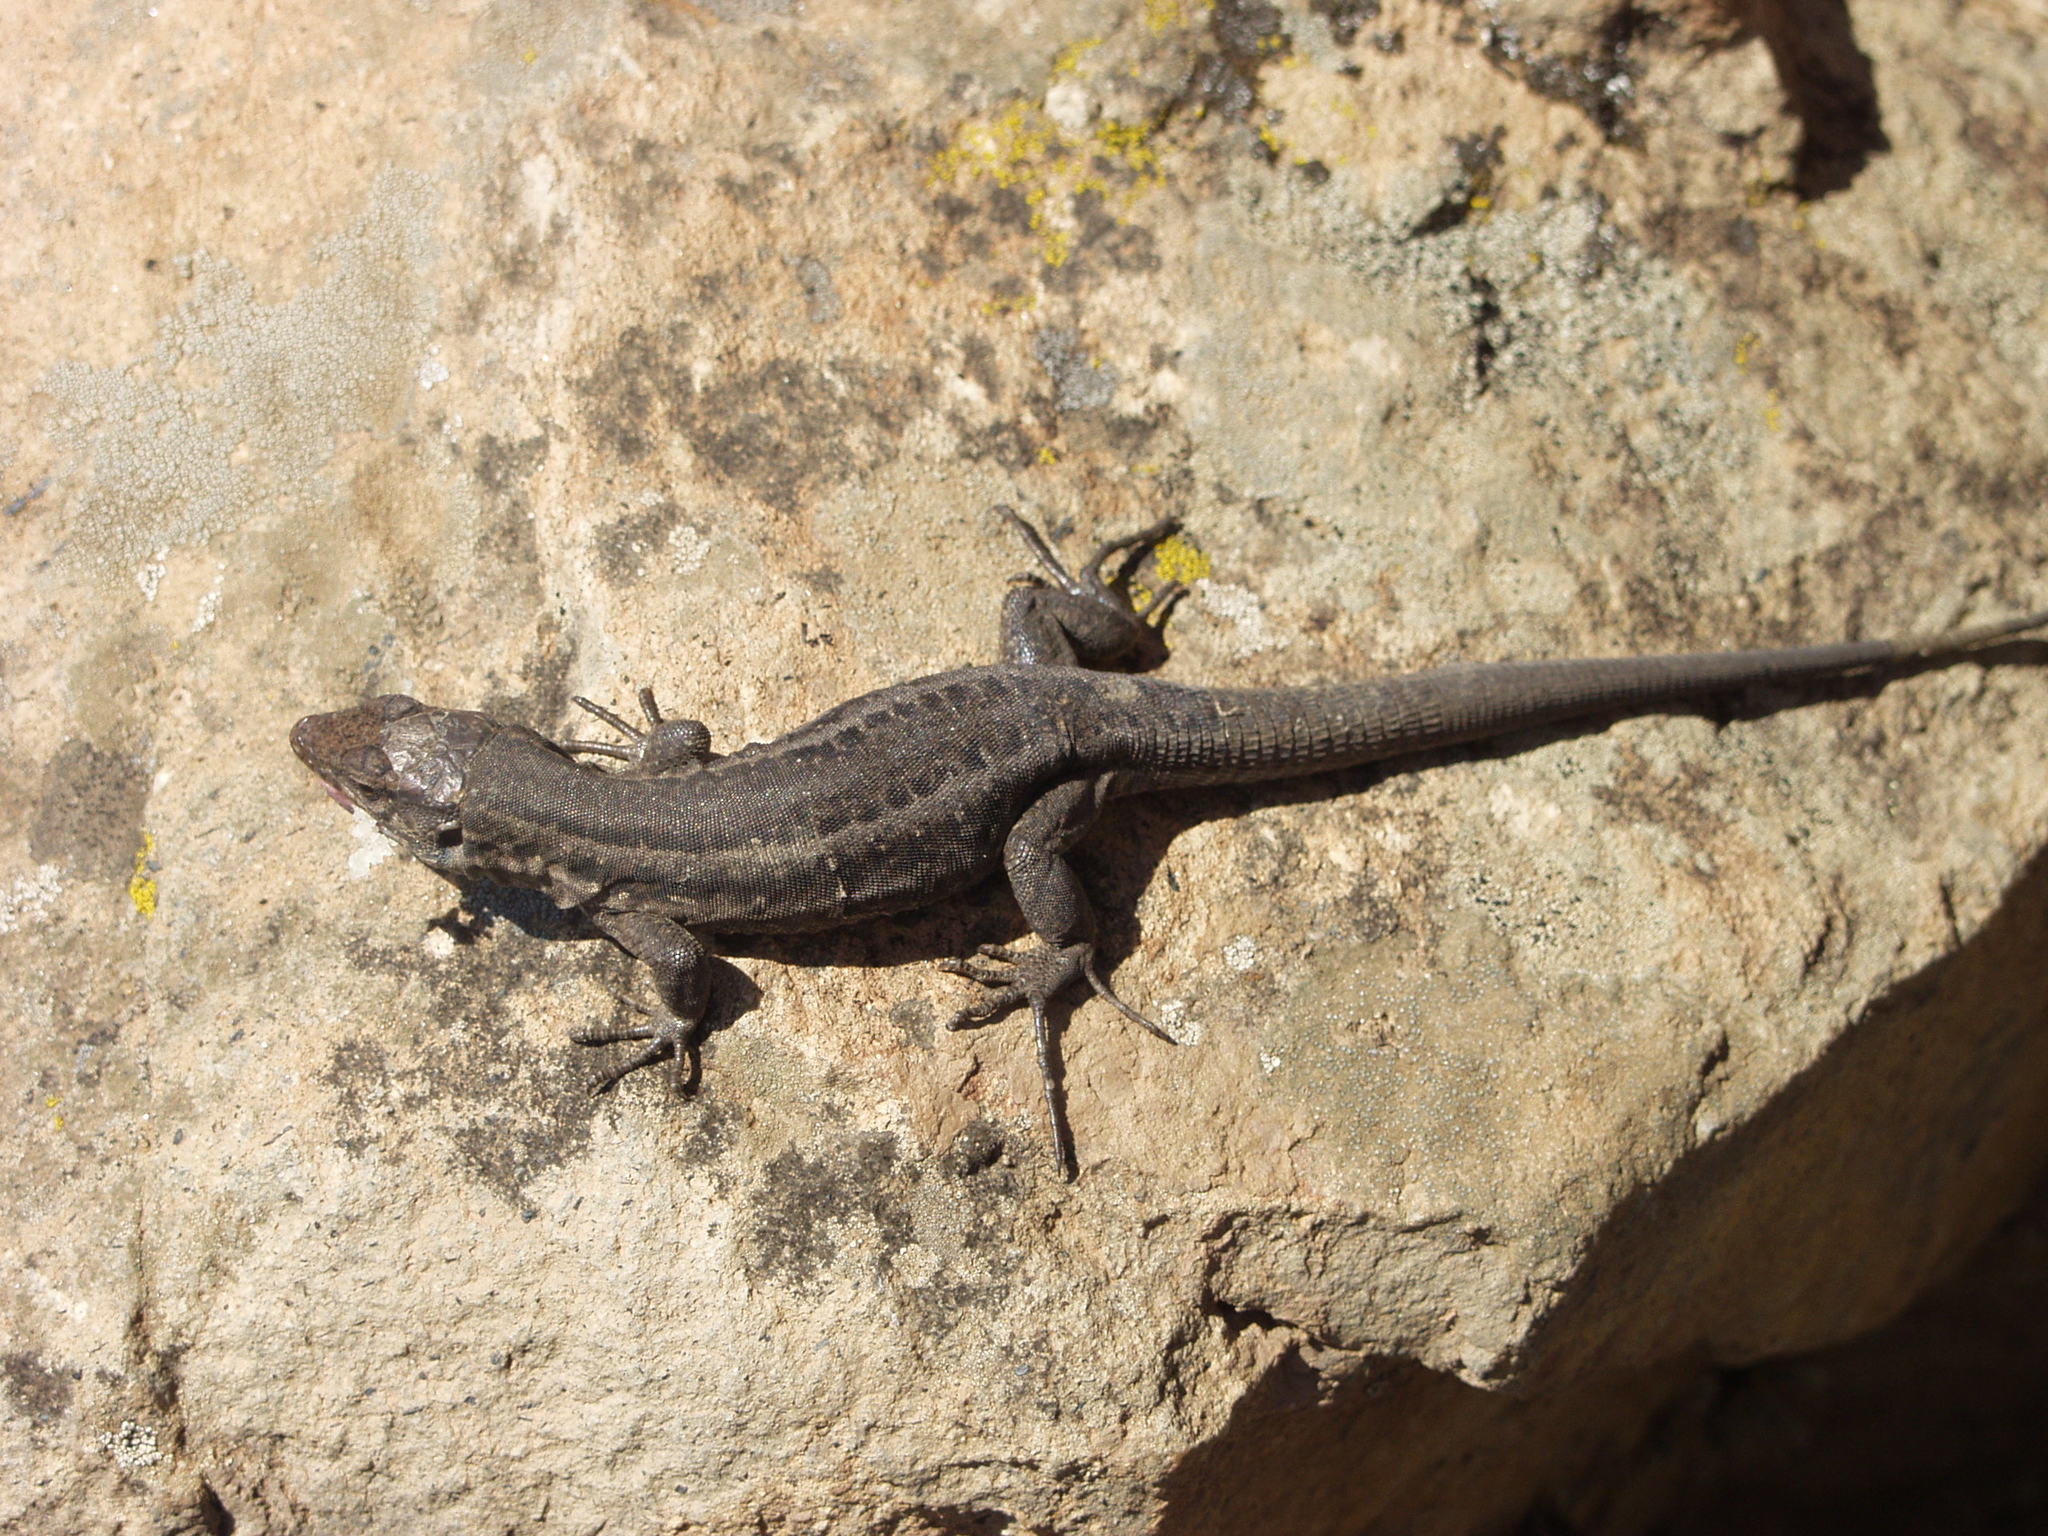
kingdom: Animalia
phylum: Chordata
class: Squamata
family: Lacertidae
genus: Gallotia
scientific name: Gallotia galloti
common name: Gallot's lizard
